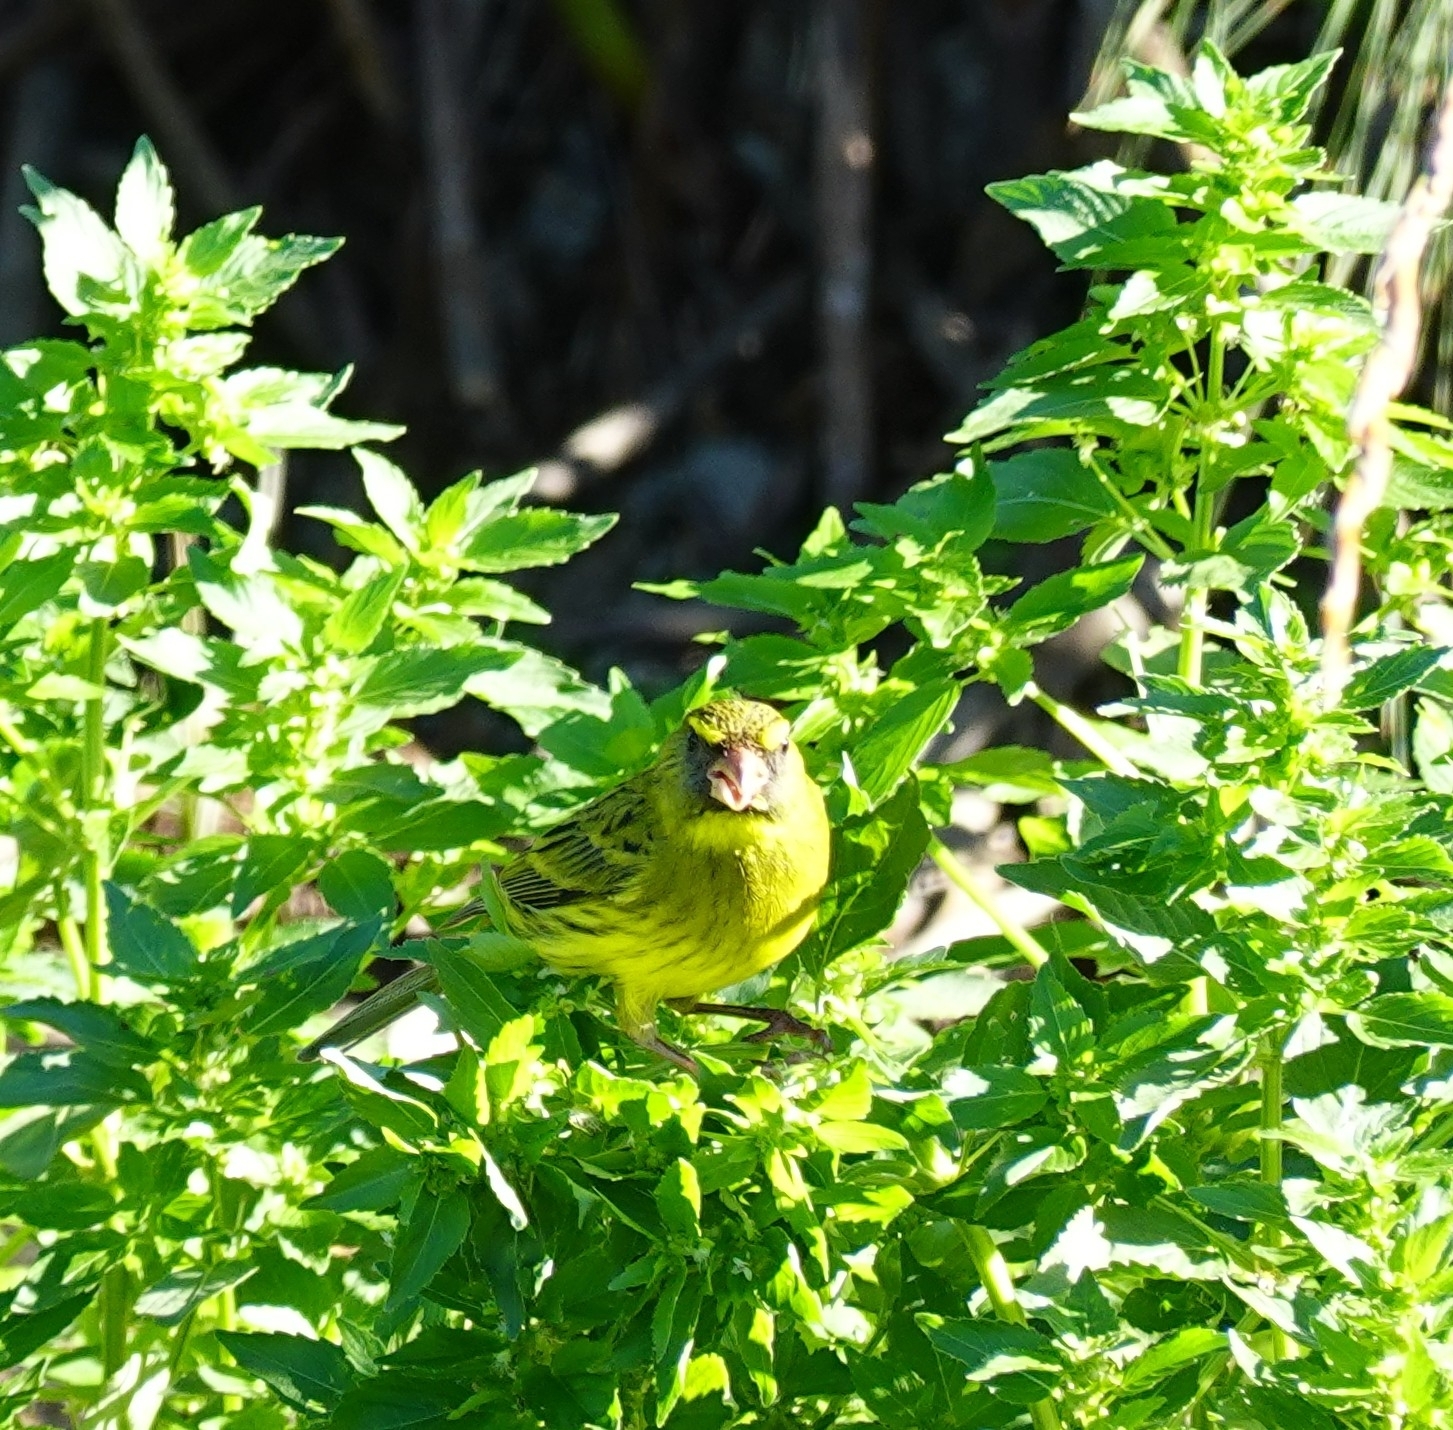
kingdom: Animalia
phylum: Chordata
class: Aves
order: Passeriformes
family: Fringillidae
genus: Crithagra
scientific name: Crithagra scotops
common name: Forest canary
